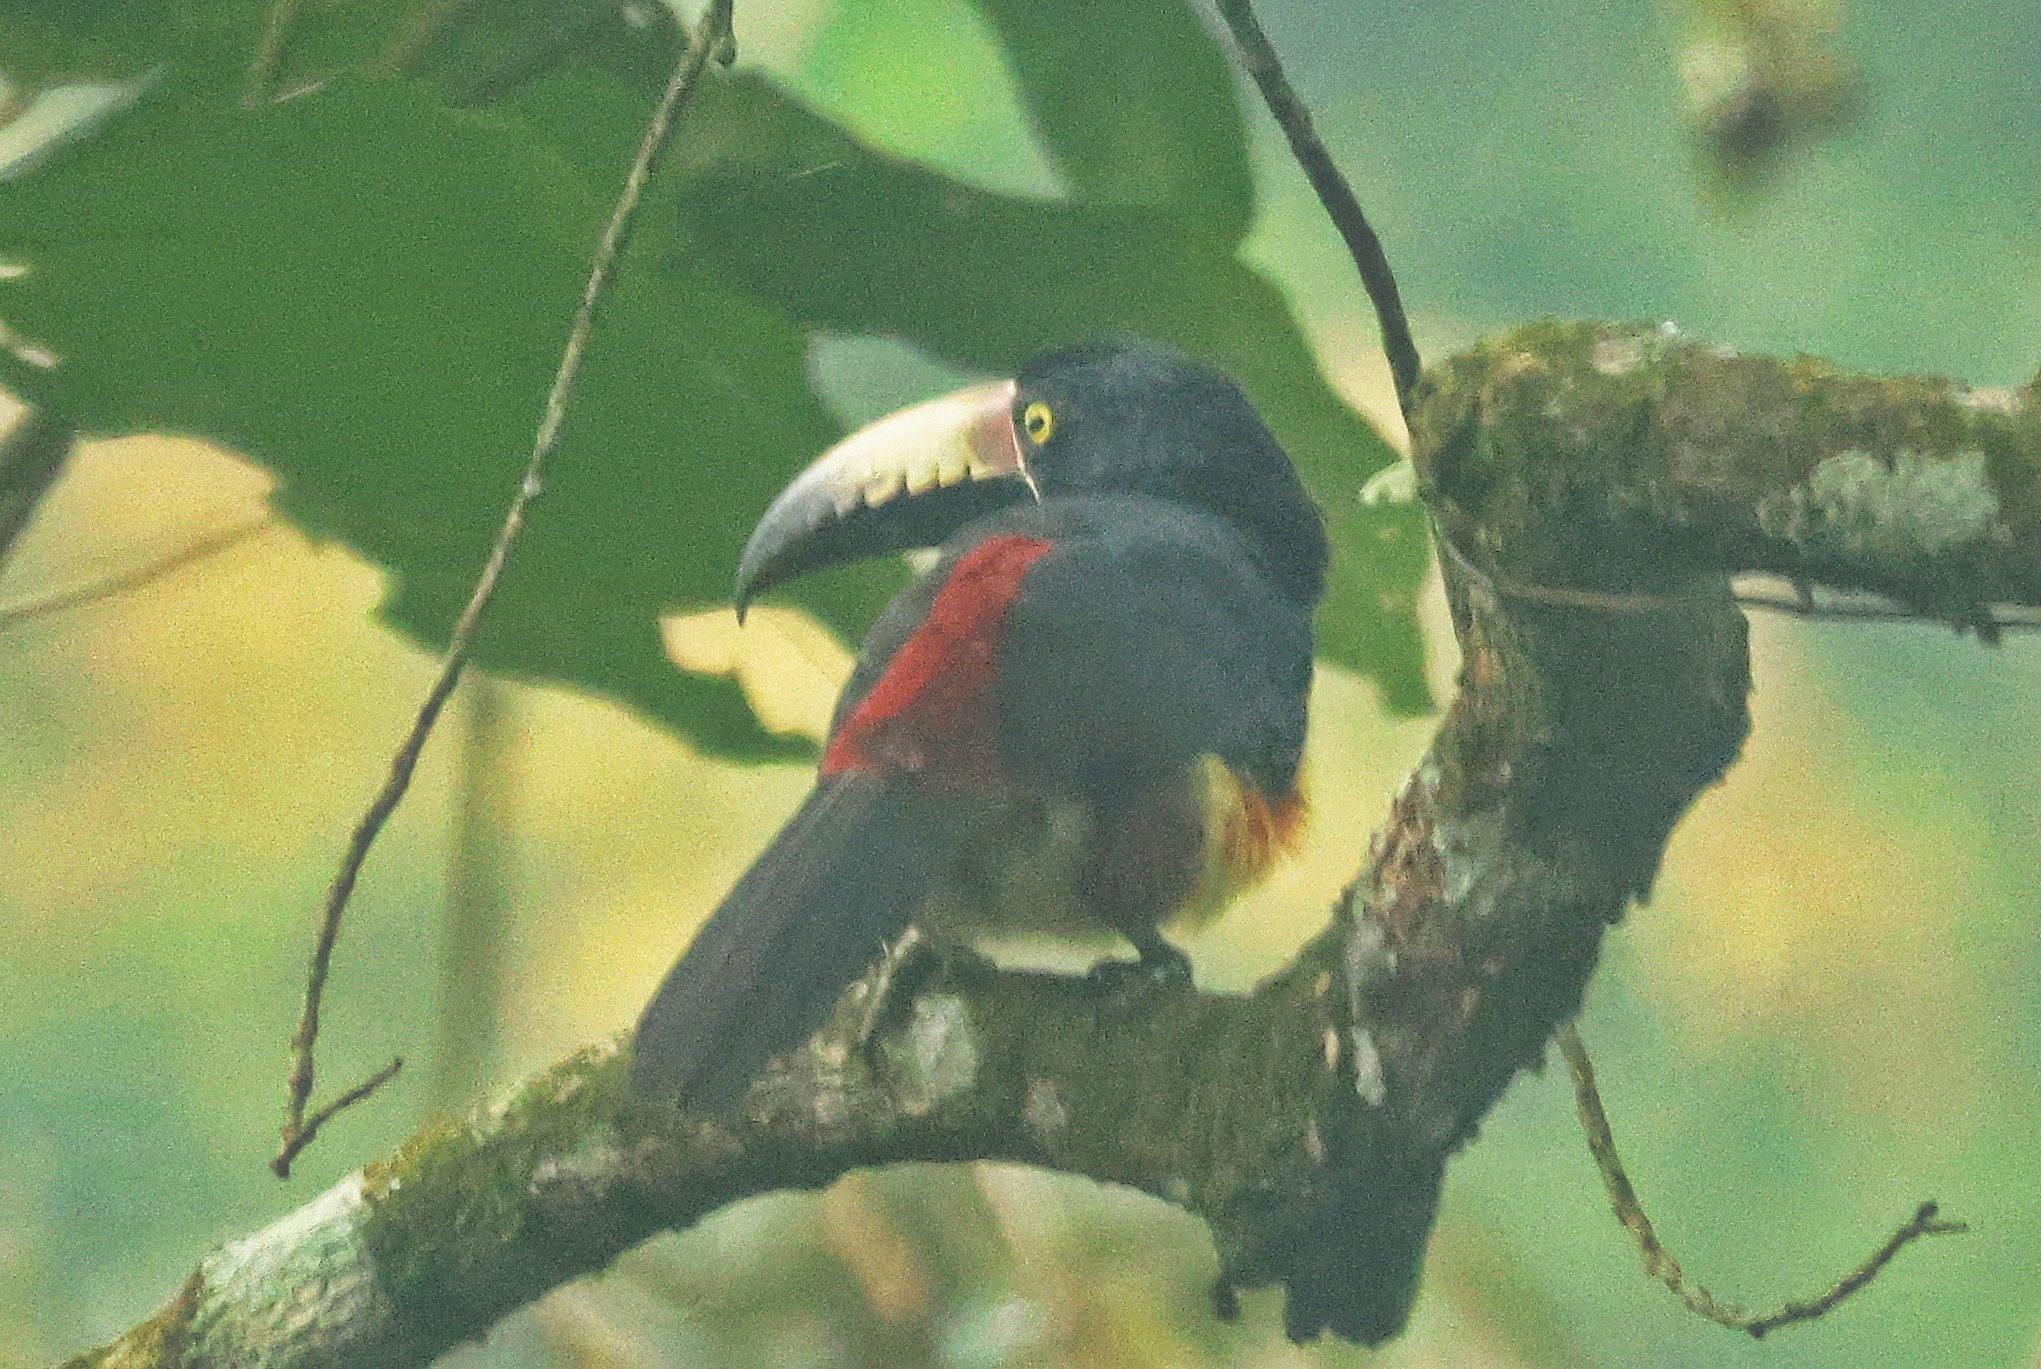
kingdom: Animalia
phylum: Chordata
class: Aves
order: Piciformes
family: Ramphastidae
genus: Pteroglossus
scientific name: Pteroglossus torquatus
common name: Collared aracari
